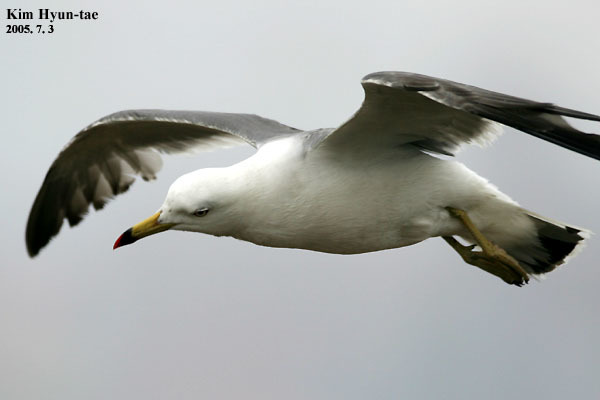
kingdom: Animalia
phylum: Chordata
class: Aves
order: Charadriiformes
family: Laridae
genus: Larus
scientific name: Larus crassirostris
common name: Black-tailed gull
